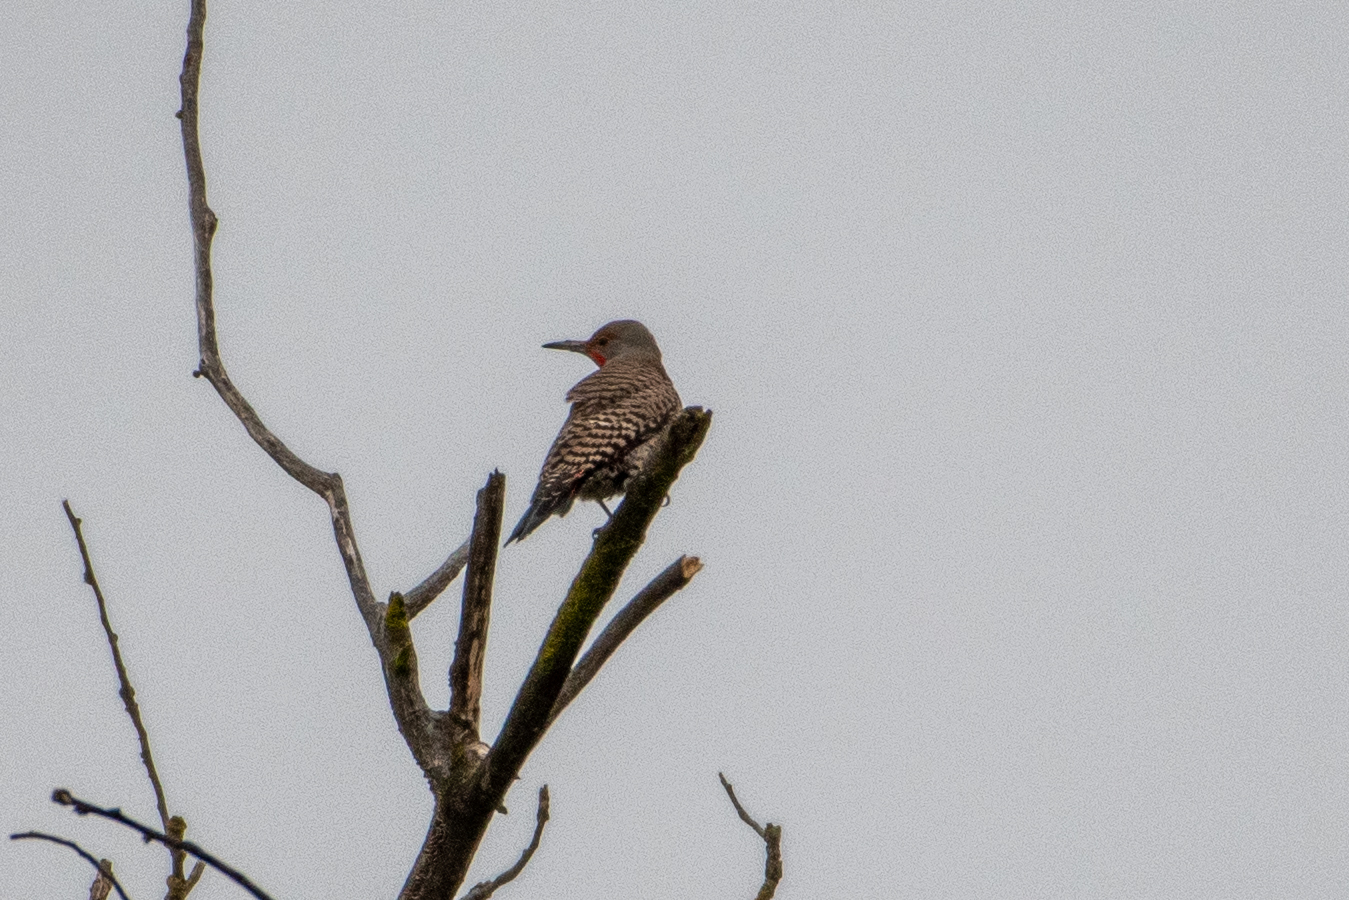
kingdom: Animalia
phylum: Chordata
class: Aves
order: Piciformes
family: Picidae
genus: Colaptes
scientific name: Colaptes auratus
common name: Northern flicker
